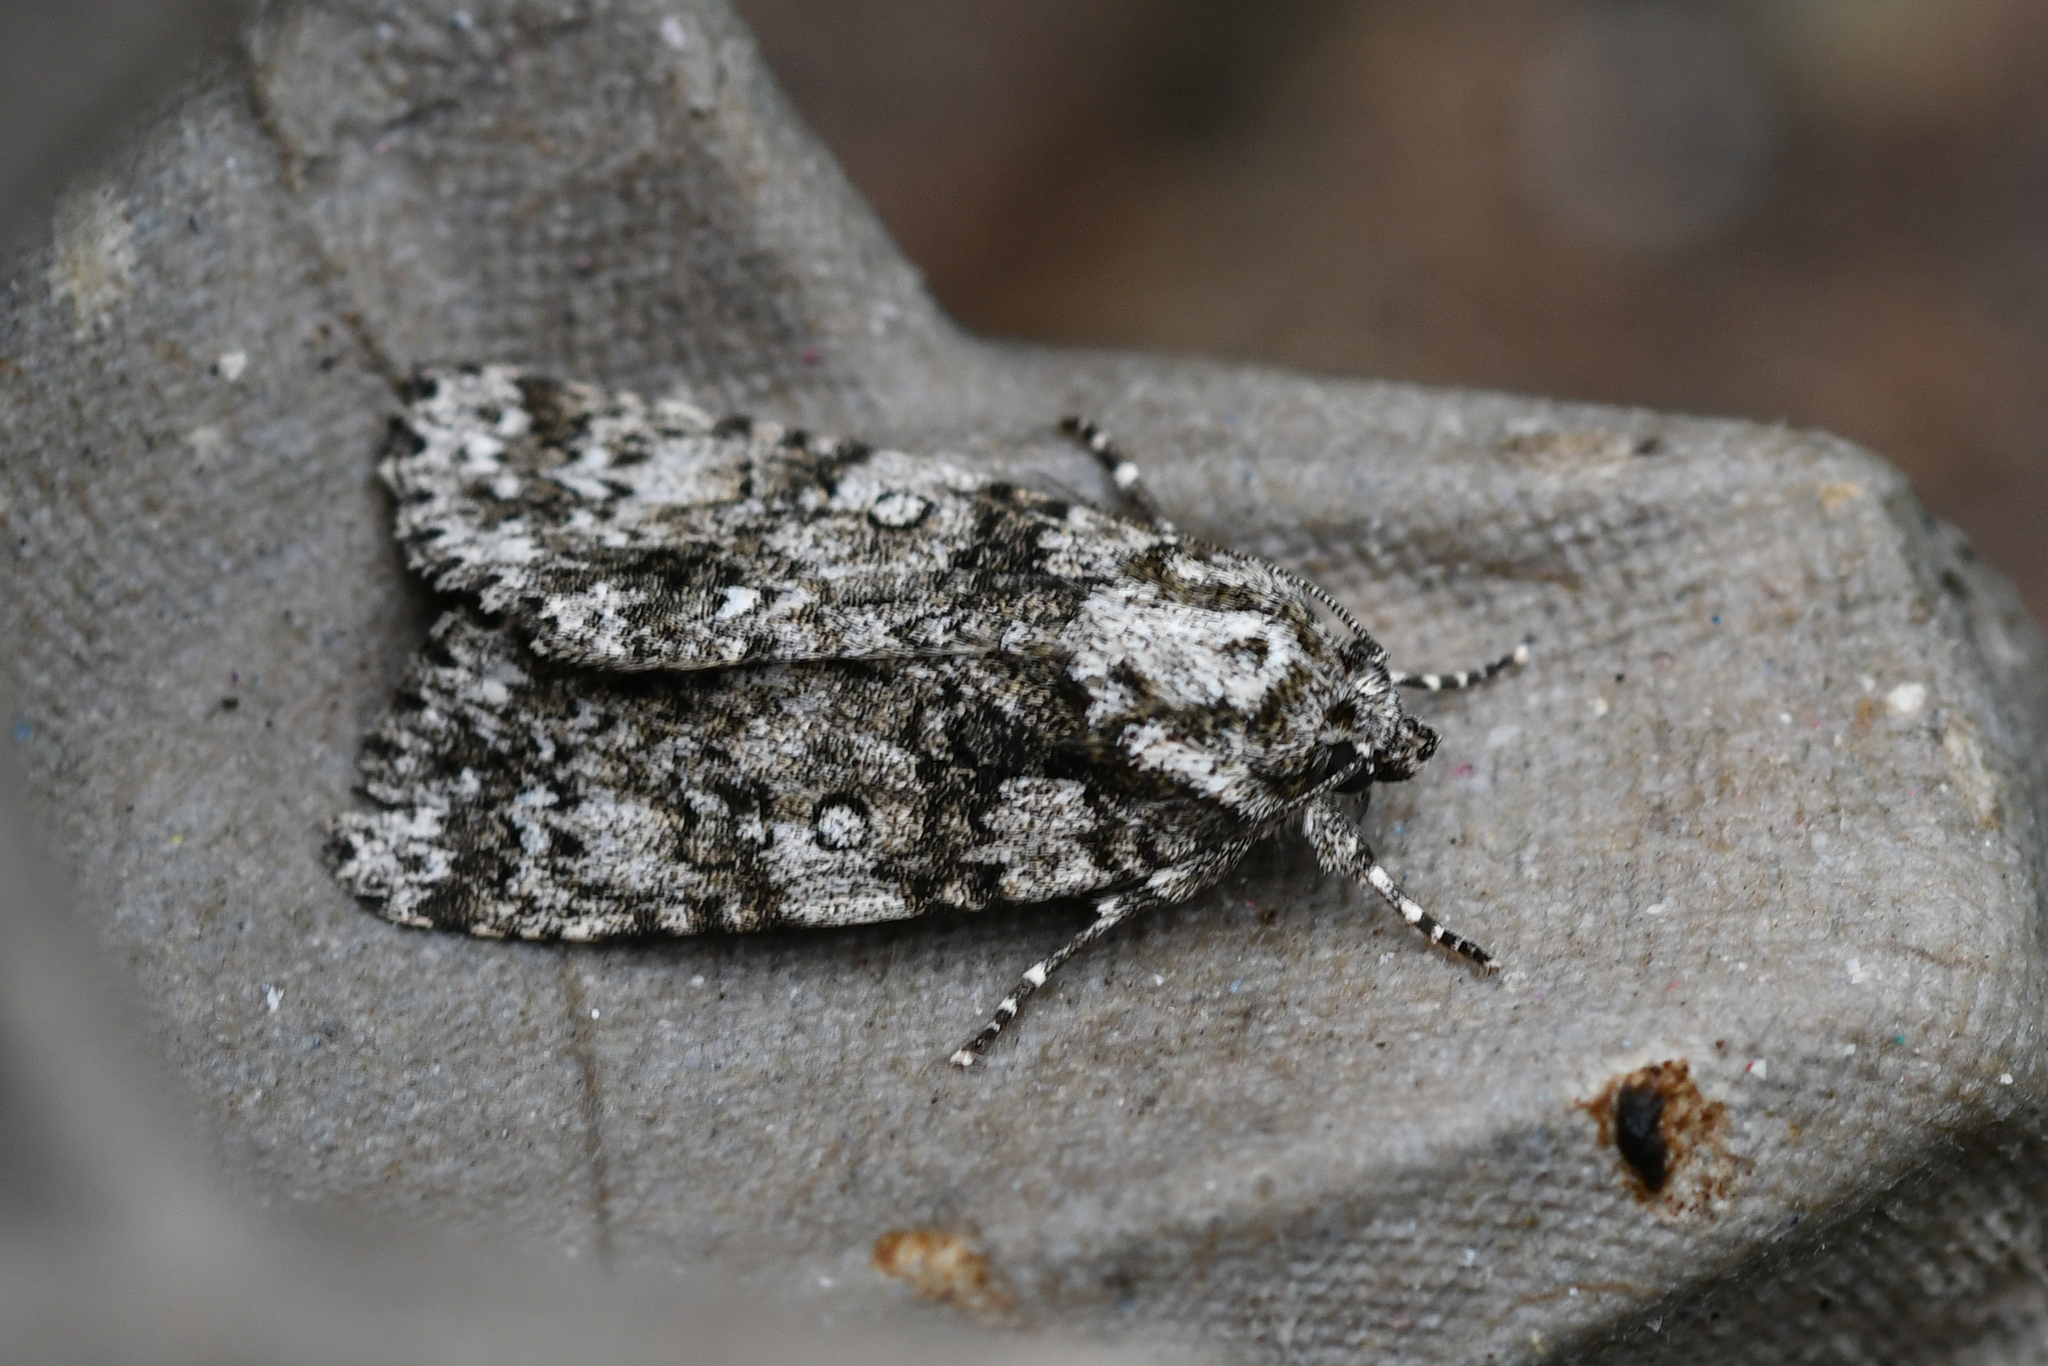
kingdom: Animalia
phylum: Arthropoda
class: Insecta
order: Lepidoptera
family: Noctuidae
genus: Acronicta
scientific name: Acronicta rumicis
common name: Knot grass
